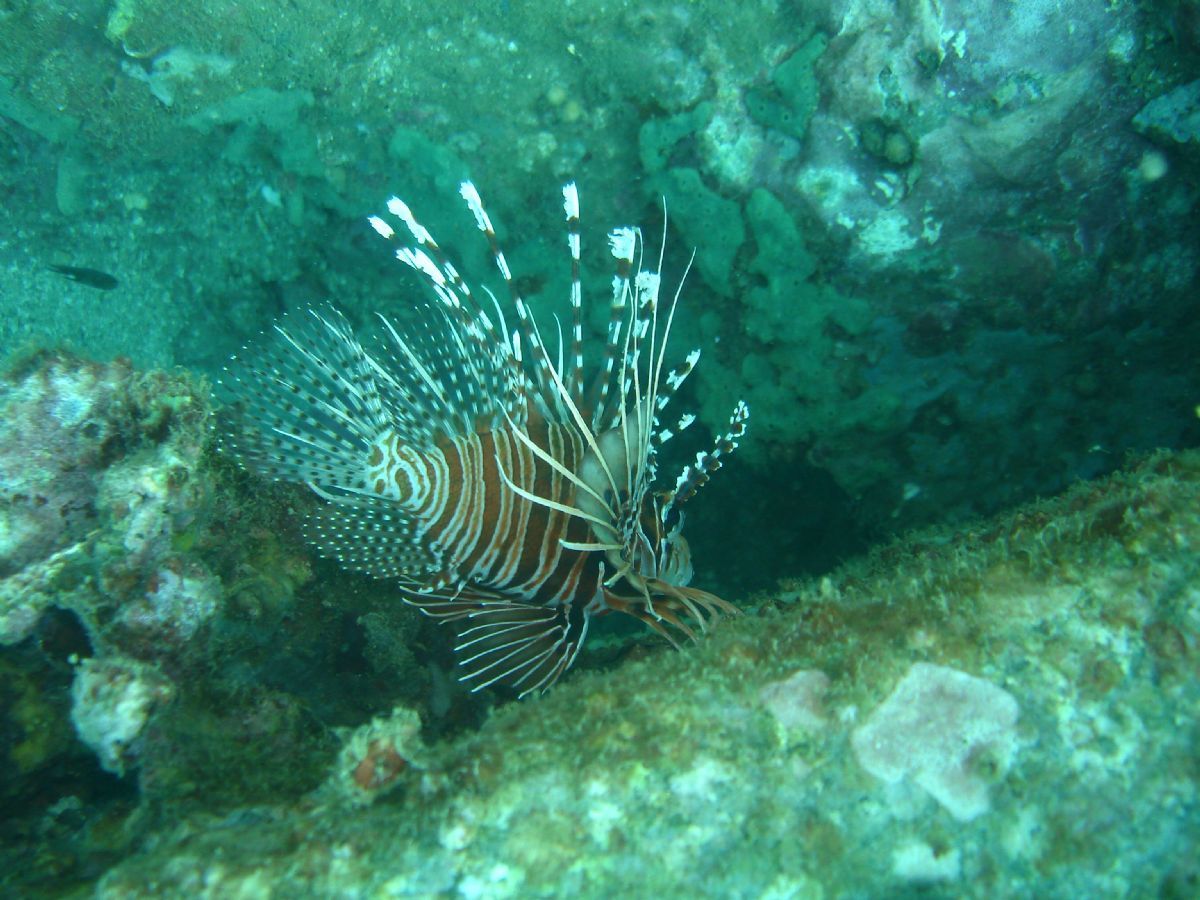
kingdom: Animalia
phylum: Chordata
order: Scorpaeniformes
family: Scorpaenidae
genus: Pterois
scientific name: Pterois antennata
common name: Spotfin lionfish
